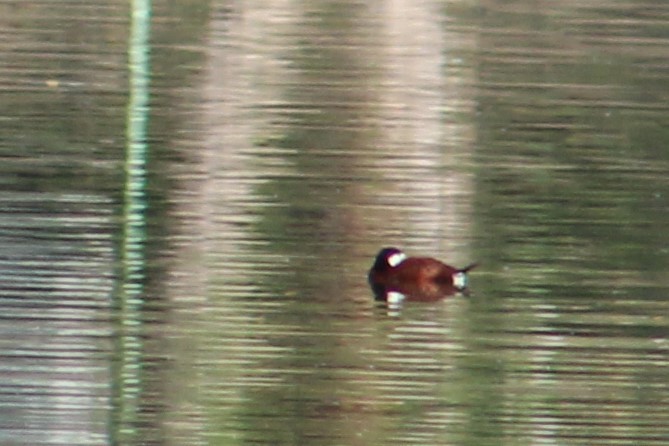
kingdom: Animalia
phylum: Chordata
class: Aves
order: Anseriformes
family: Anatidae
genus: Oxyura
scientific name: Oxyura jamaicensis
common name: Ruddy duck
